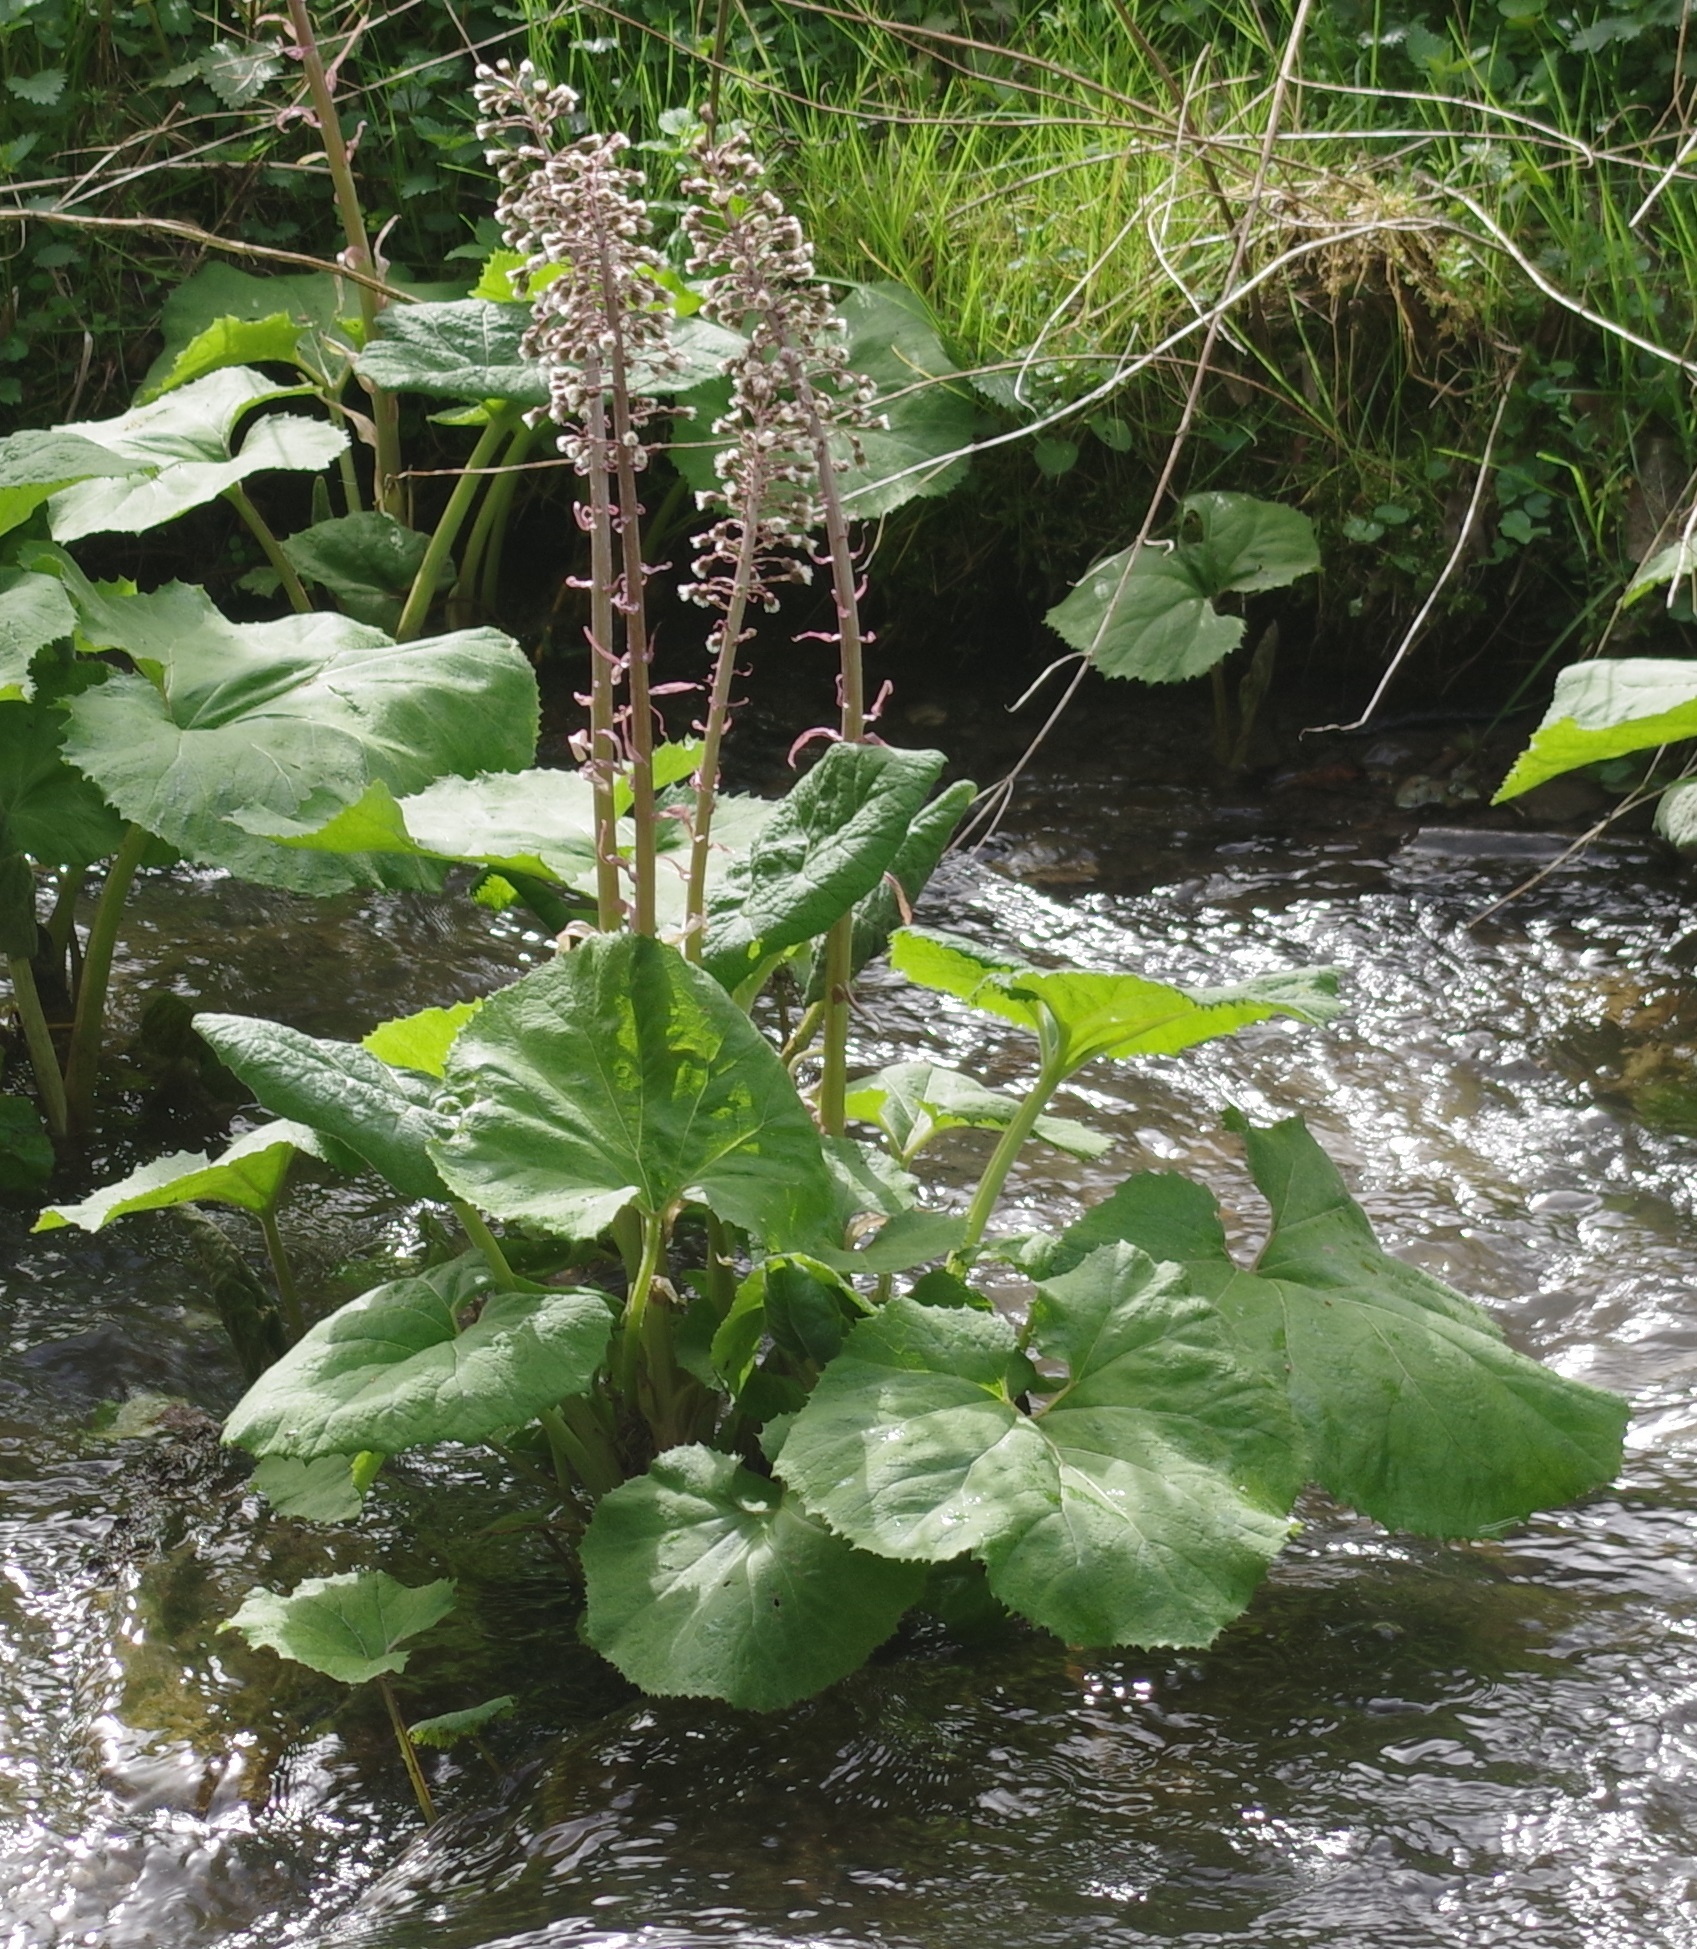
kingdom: Plantae
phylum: Tracheophyta
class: Magnoliopsida
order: Asterales
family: Asteraceae
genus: Petasites
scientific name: Petasites hybridus
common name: Butterbur
